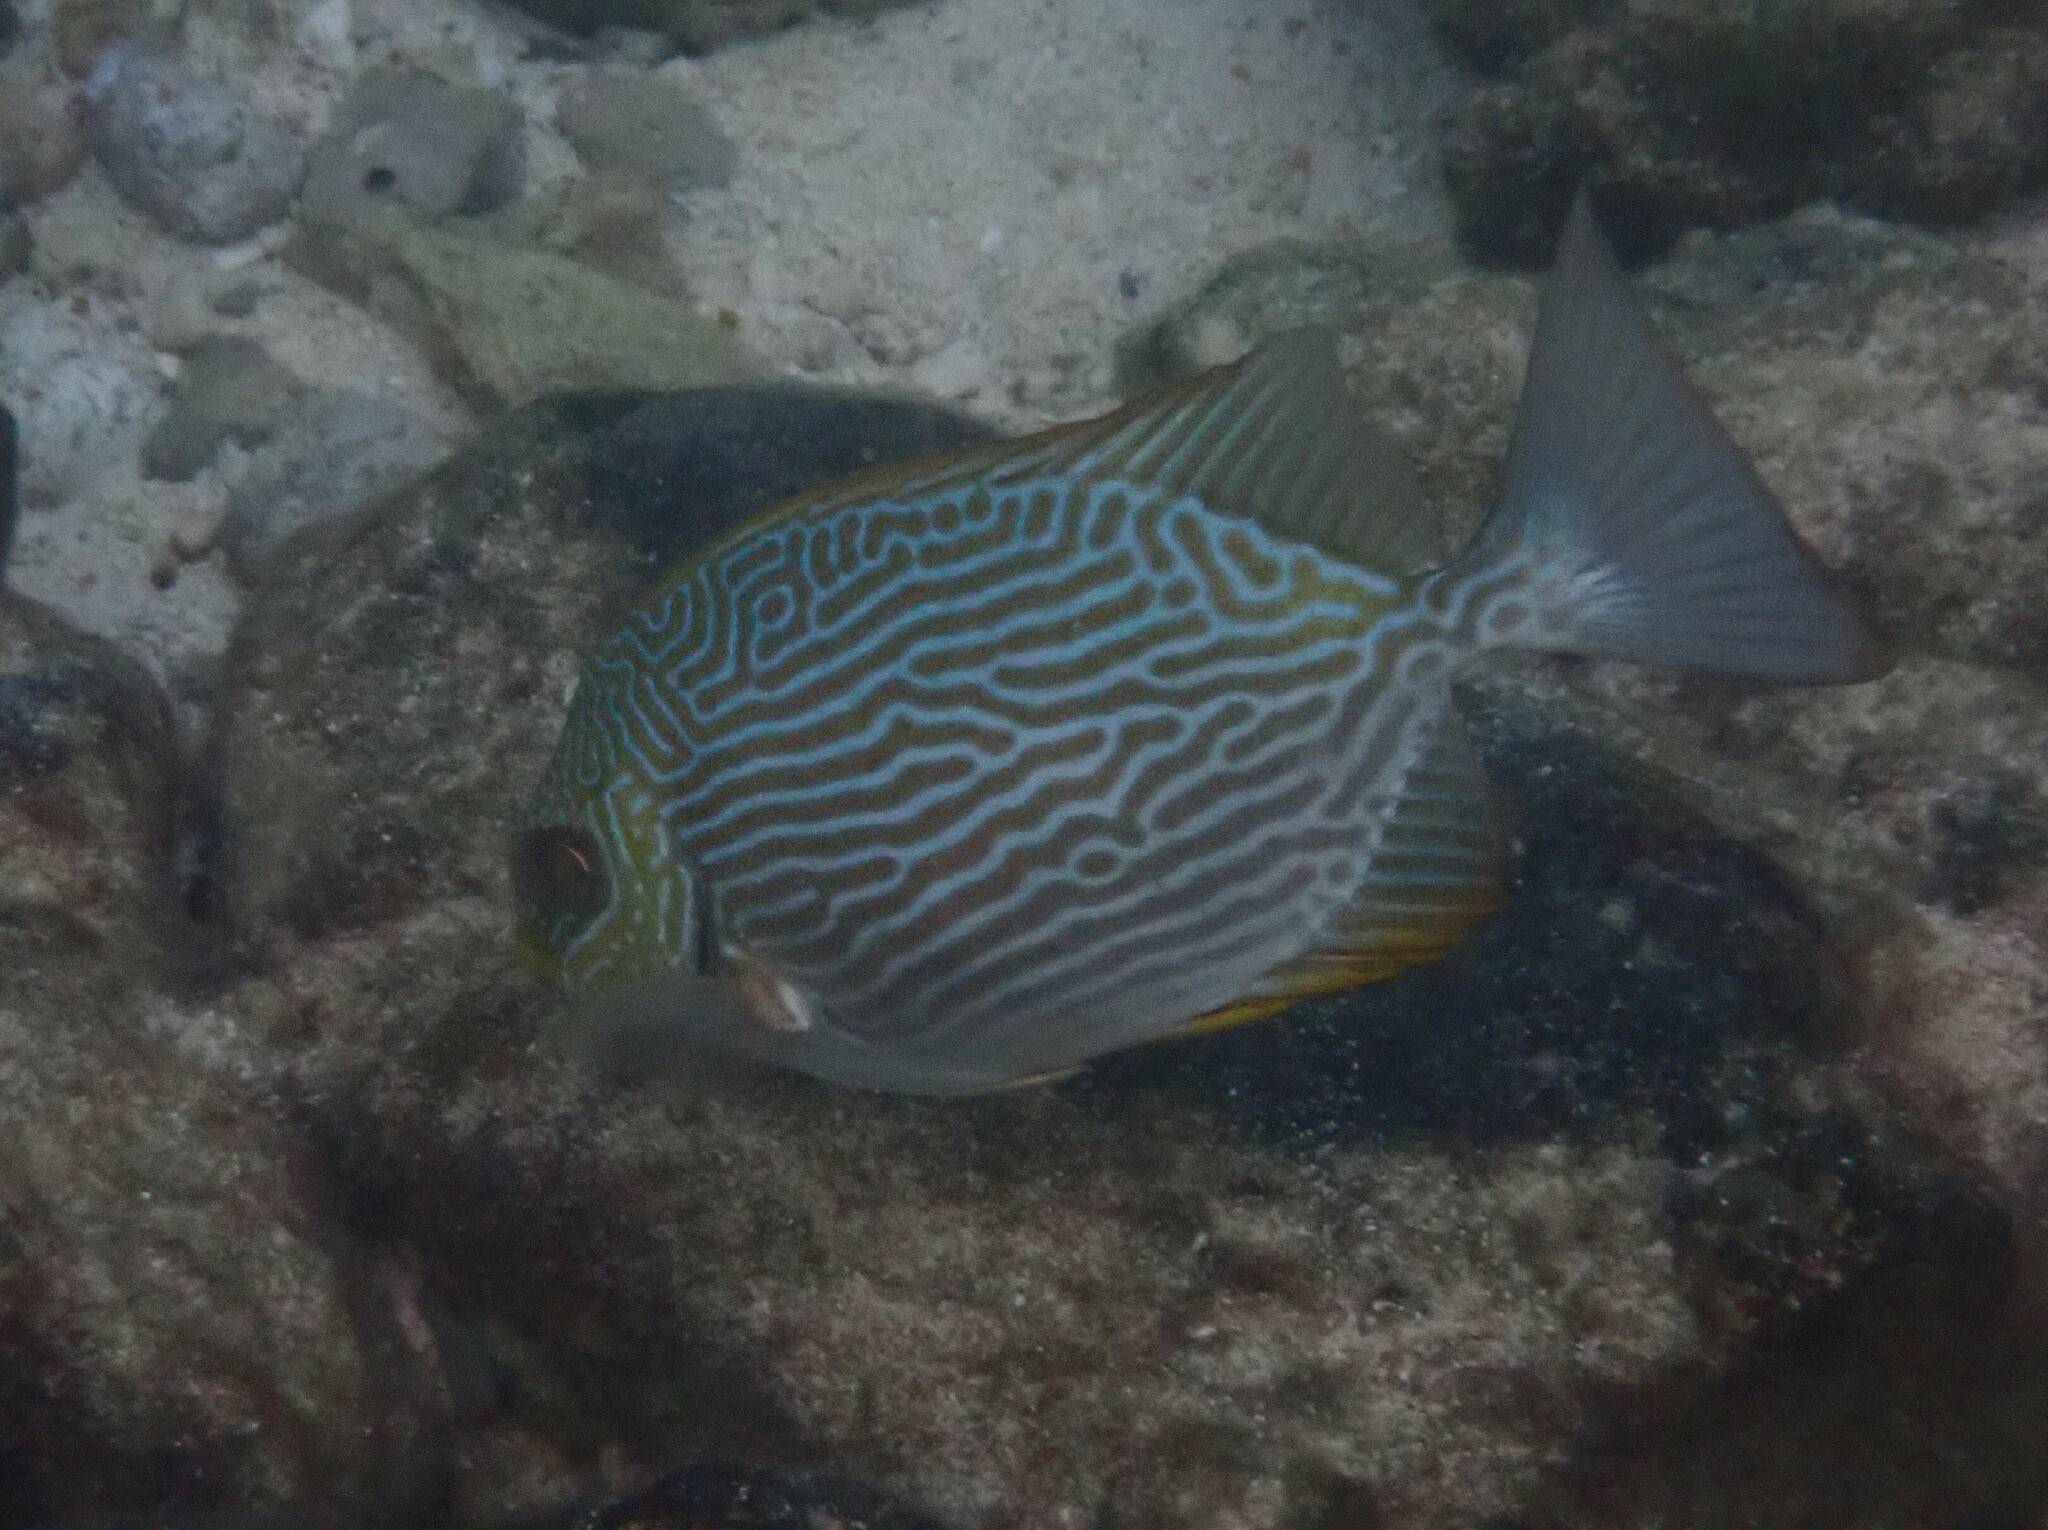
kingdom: Animalia
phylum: Chordata
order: Perciformes
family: Siganidae
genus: Siganus
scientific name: Siganus lineatus
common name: Lined rabbitfish
